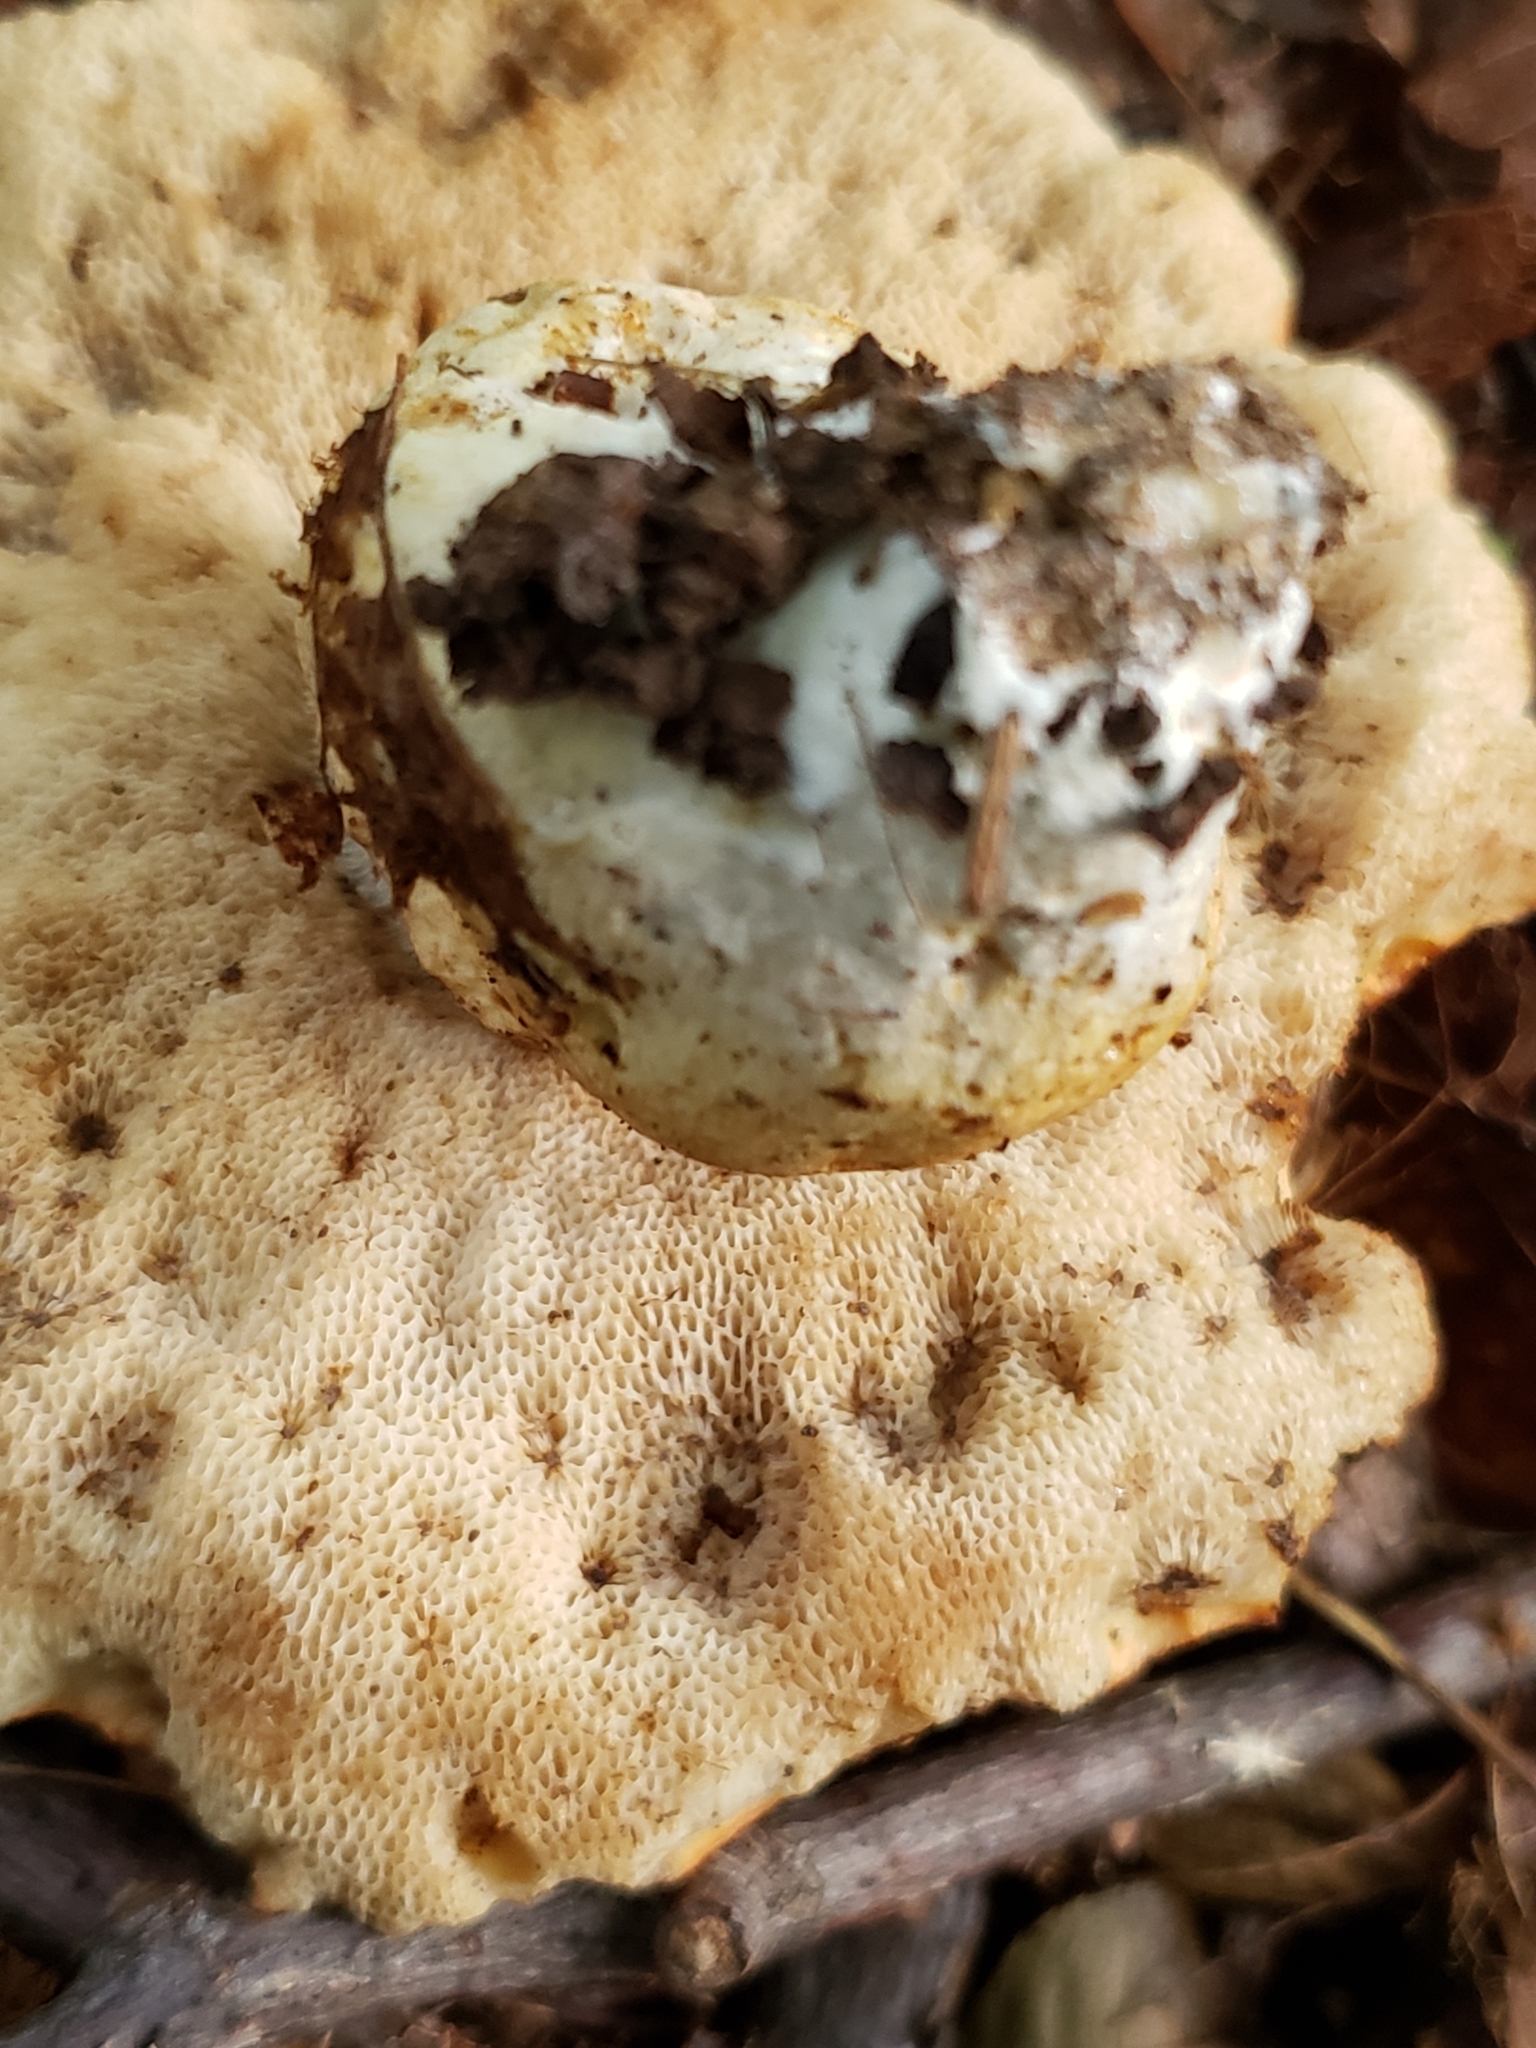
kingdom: Fungi
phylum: Basidiomycota
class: Agaricomycetes
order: Boletales
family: Boletaceae
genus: Tylopilus
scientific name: Tylopilus balloui
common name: Burnt-orange bolete
